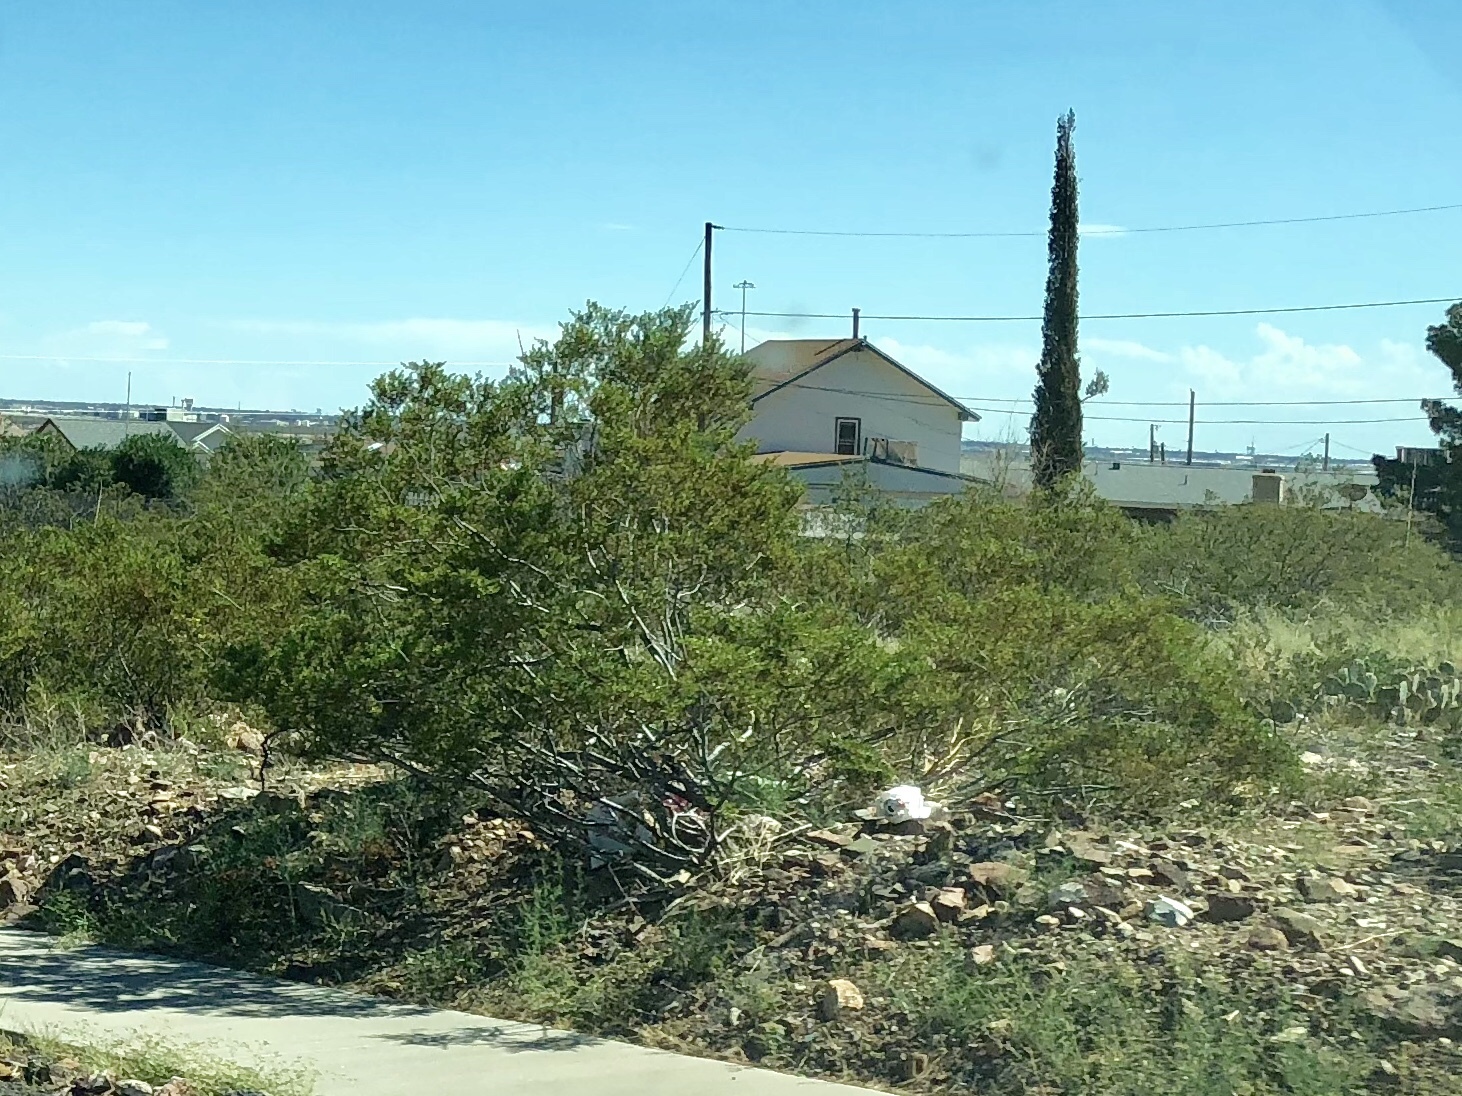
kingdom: Plantae
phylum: Tracheophyta
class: Magnoliopsida
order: Zygophyllales
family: Zygophyllaceae
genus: Larrea
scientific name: Larrea tridentata
